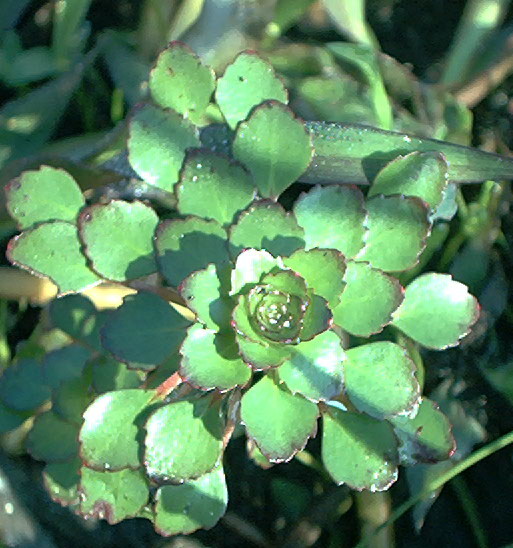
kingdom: Plantae
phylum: Tracheophyta
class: Magnoliopsida
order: Myrtales
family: Onagraceae
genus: Ludwigia
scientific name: Ludwigia sedioides
